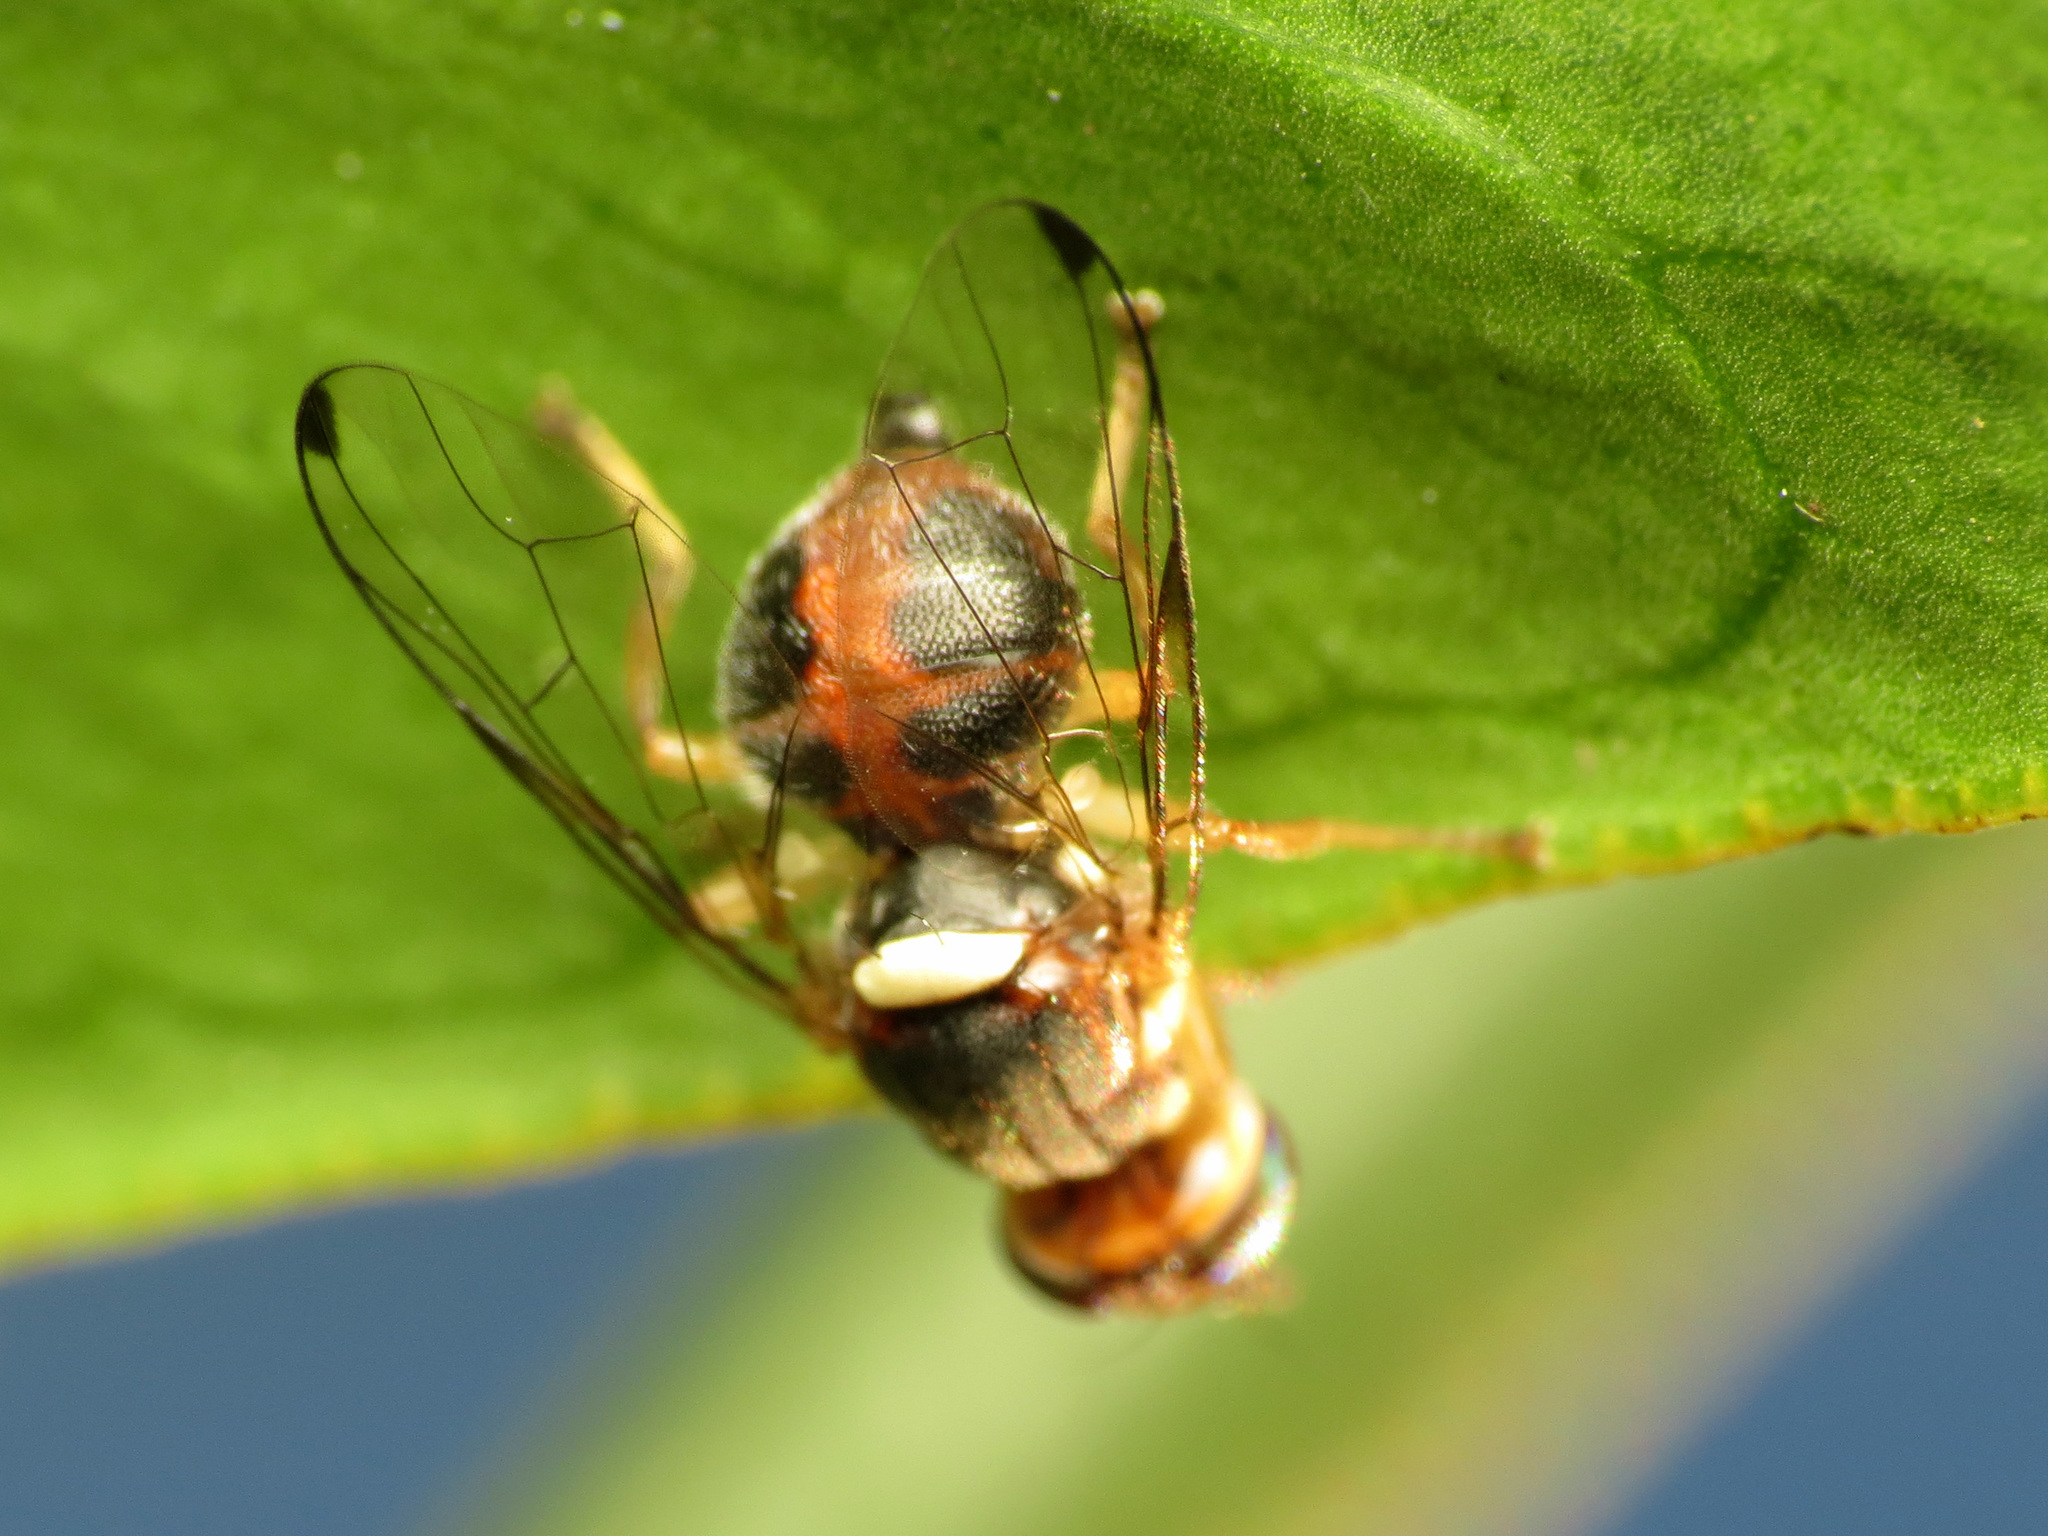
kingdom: Animalia
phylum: Arthropoda
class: Insecta
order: Diptera
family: Tephritidae
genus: Bactrocera
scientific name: Bactrocera oleae
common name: Olive fruit fly
